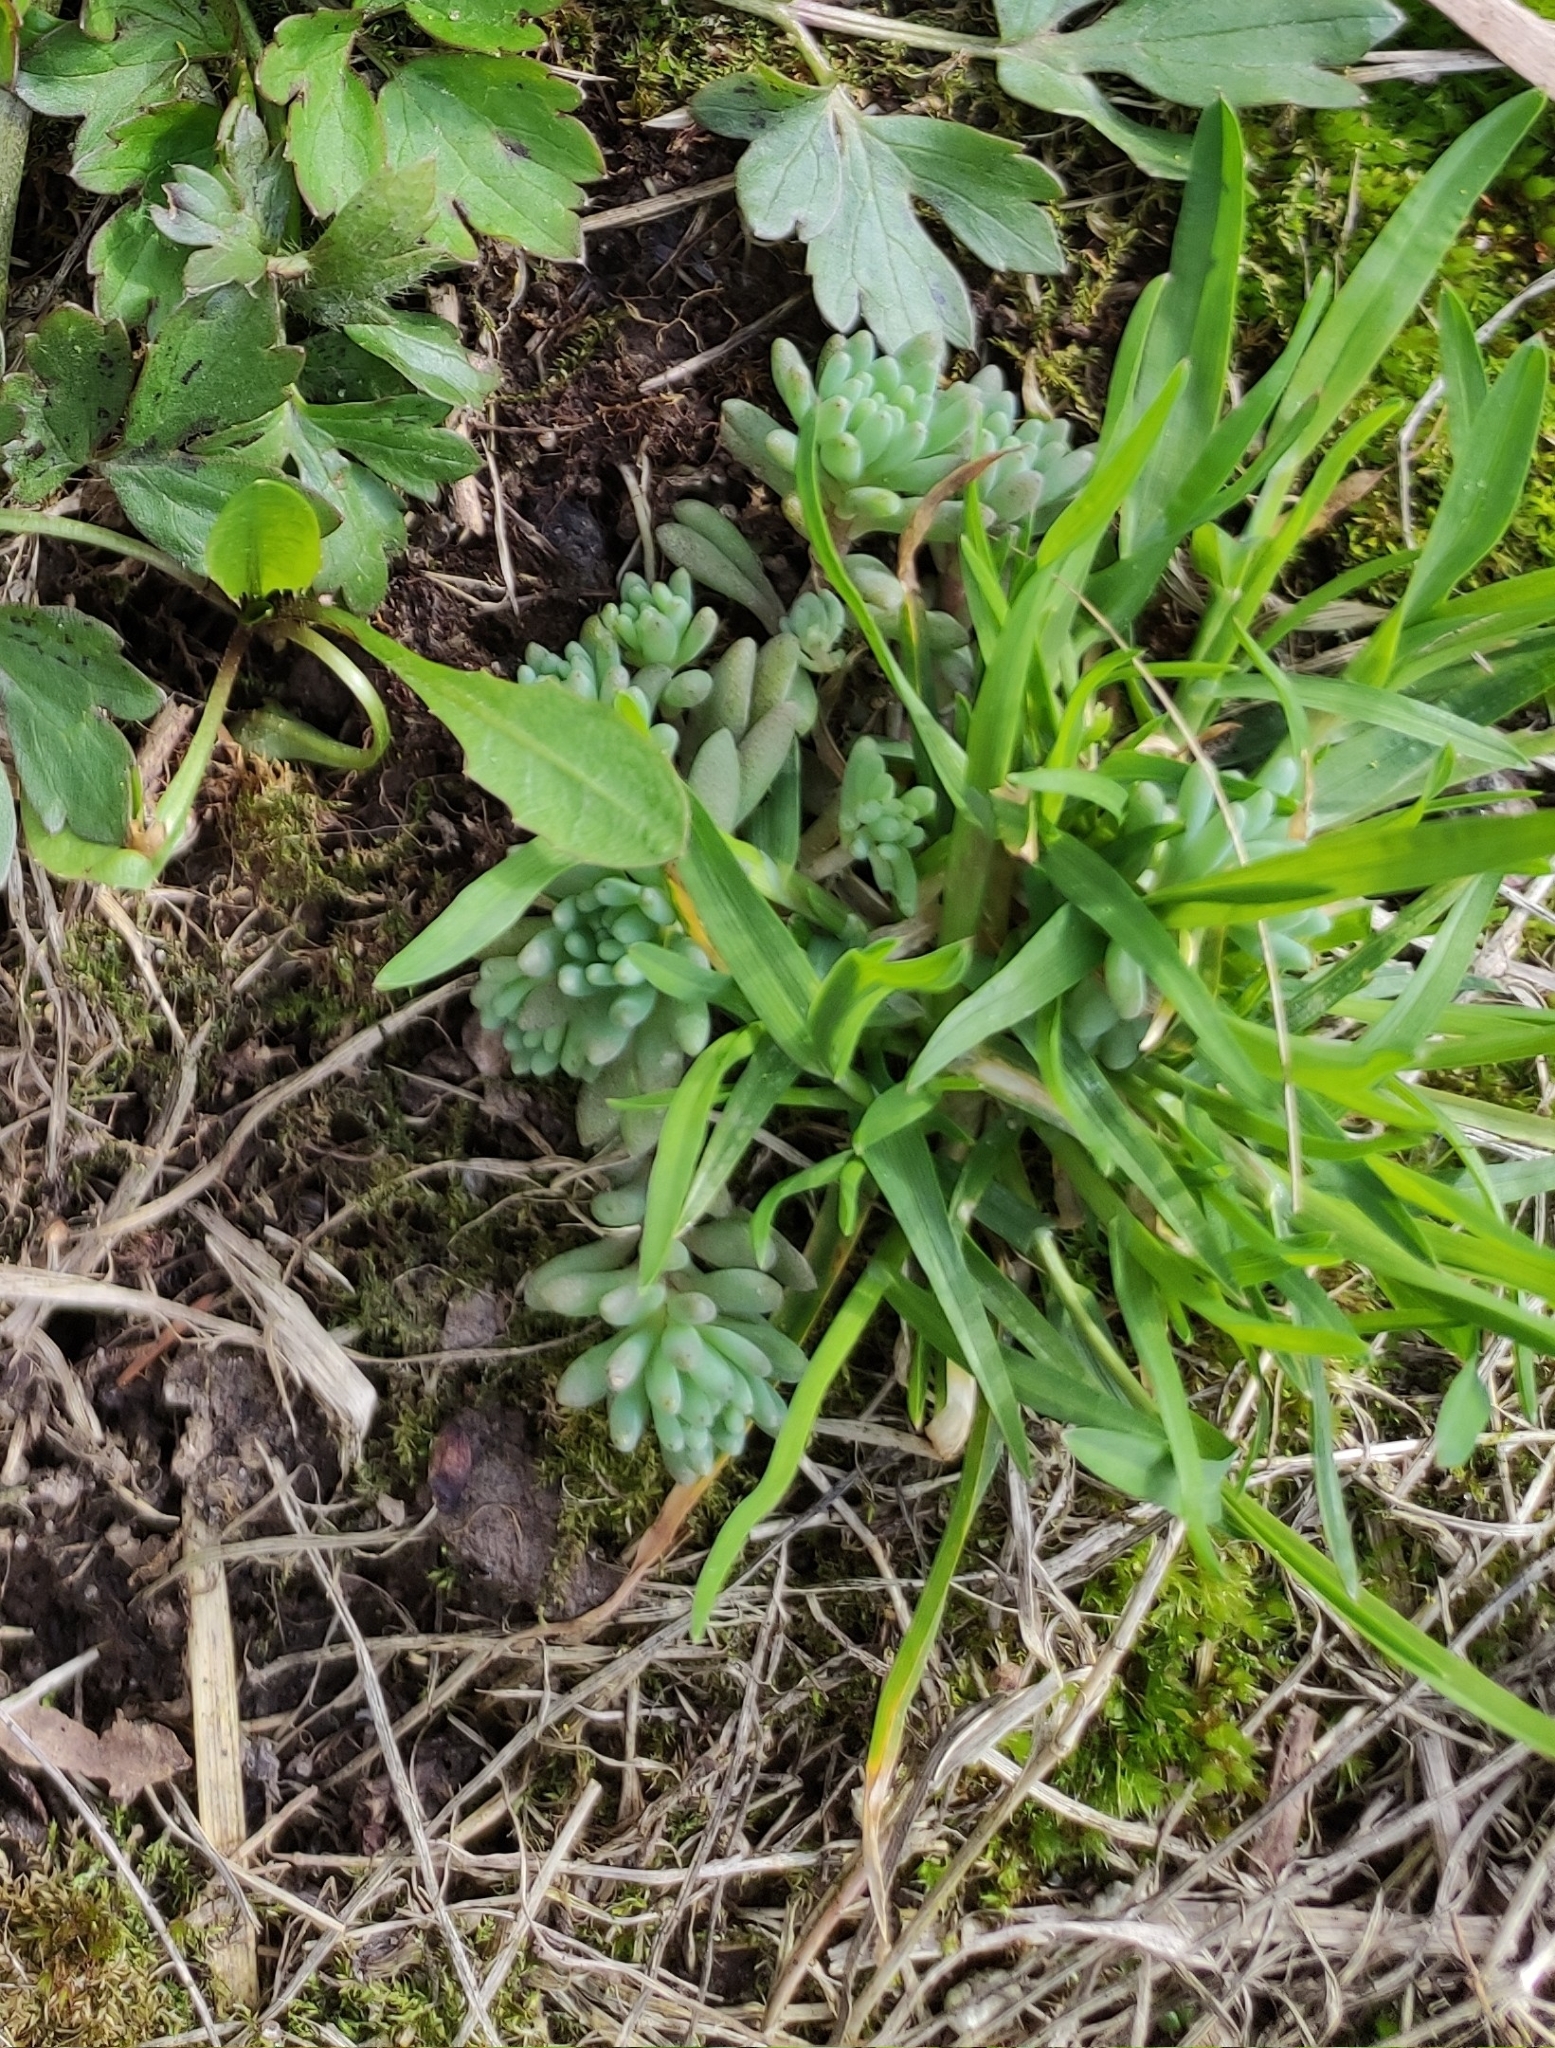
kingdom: Plantae
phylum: Tracheophyta
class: Magnoliopsida
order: Saxifragales
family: Crassulaceae
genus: Sedum
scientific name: Sedum hispanicum
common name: Spanish stonecrop
